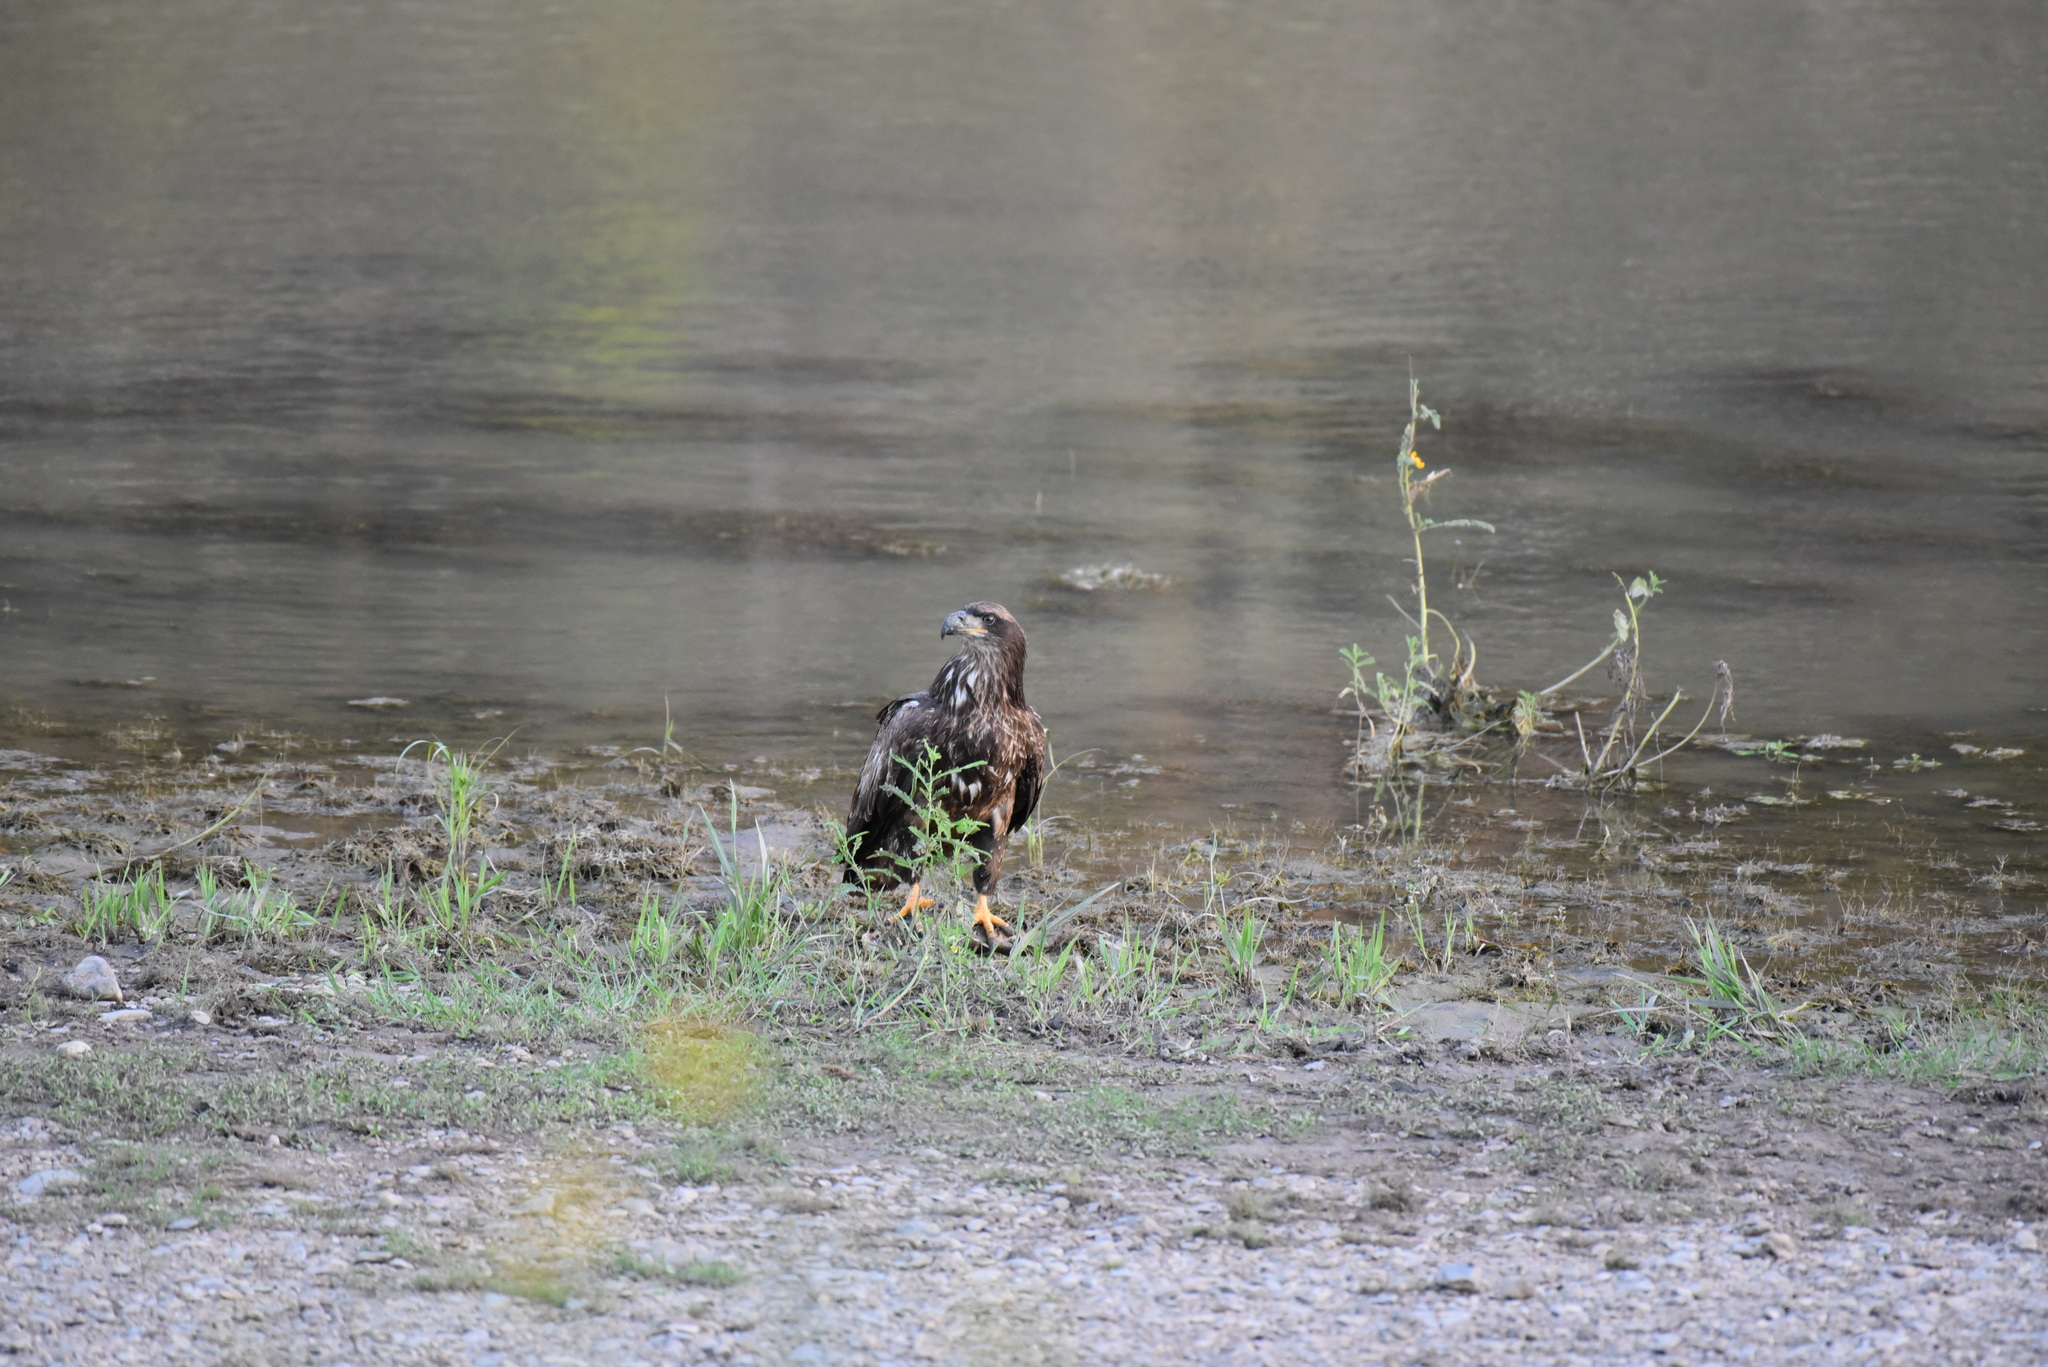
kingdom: Animalia
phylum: Chordata
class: Aves
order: Accipitriformes
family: Accipitridae
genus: Haliaeetus
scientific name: Haliaeetus leucocephalus
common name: Bald eagle
